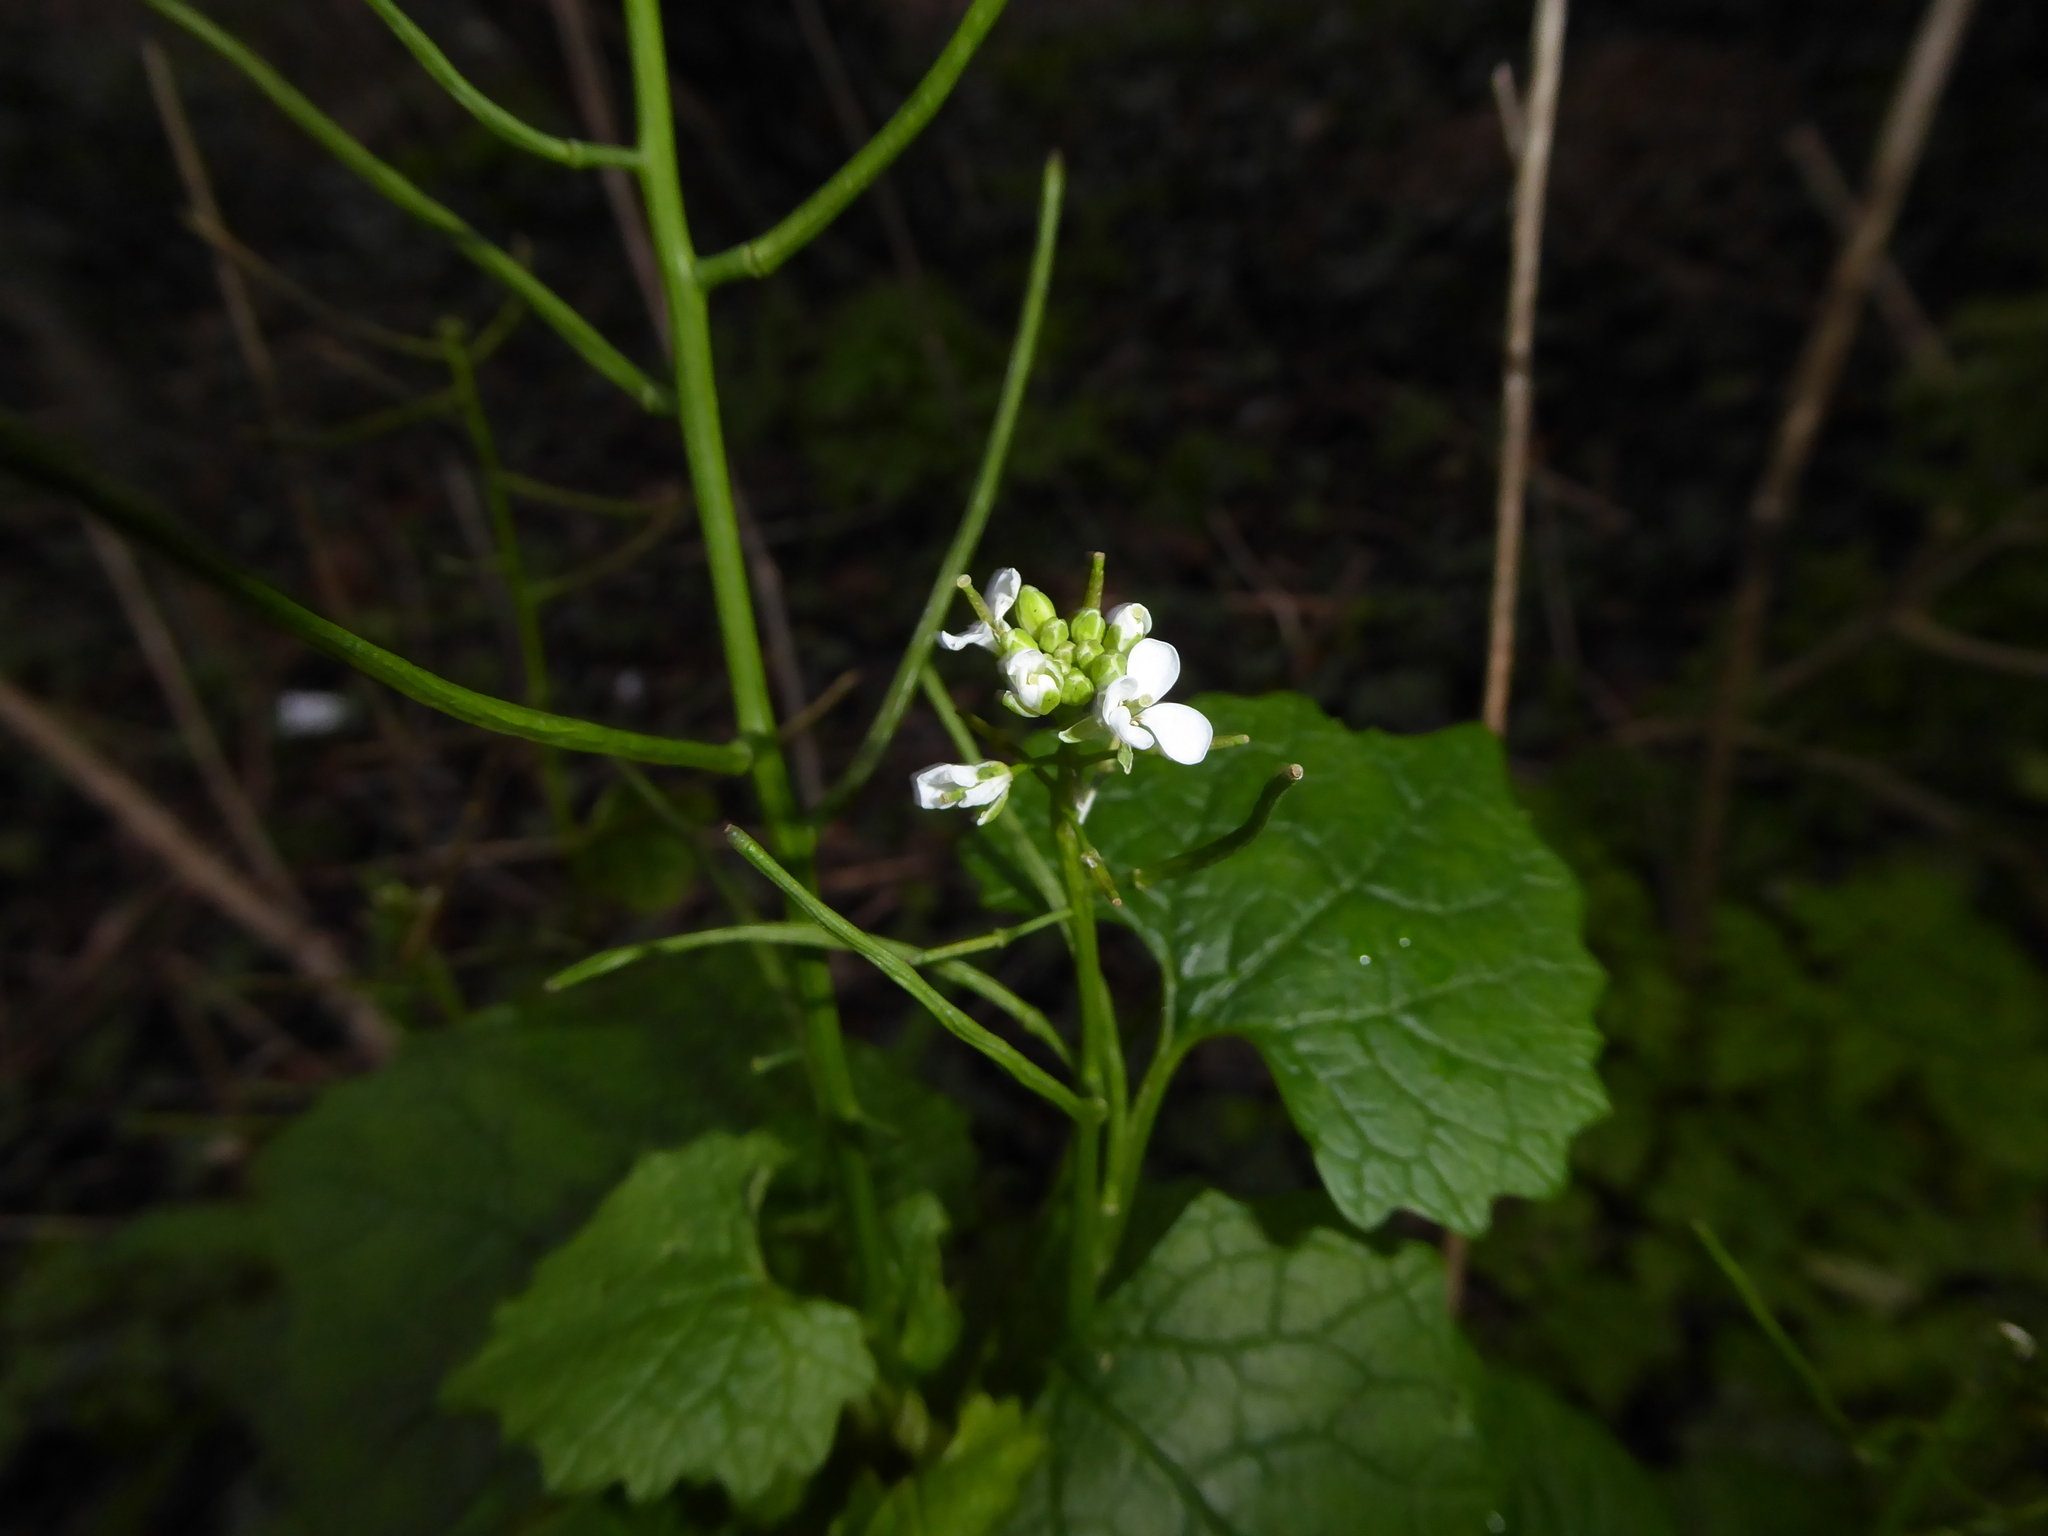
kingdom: Plantae
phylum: Tracheophyta
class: Magnoliopsida
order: Brassicales
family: Brassicaceae
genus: Alliaria
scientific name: Alliaria petiolata
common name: Garlic mustard
